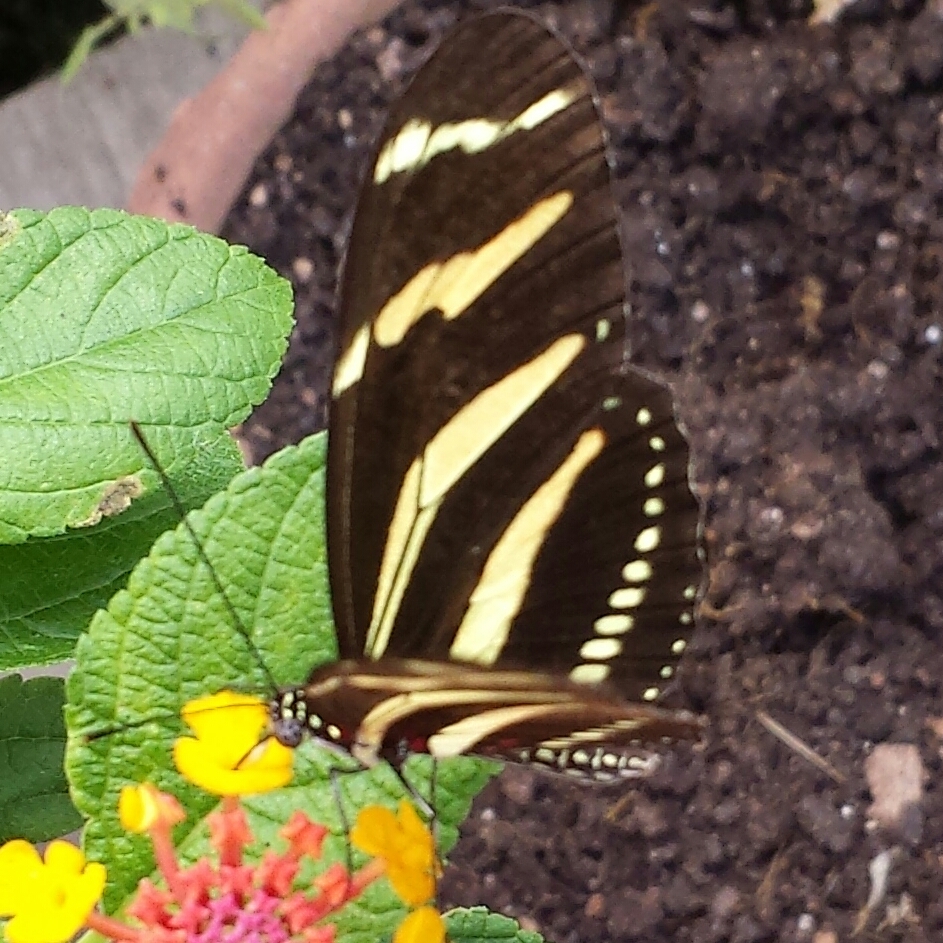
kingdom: Animalia
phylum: Arthropoda
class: Insecta
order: Lepidoptera
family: Nymphalidae
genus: Heliconius
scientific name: Heliconius charithonia
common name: Zebra long wing
